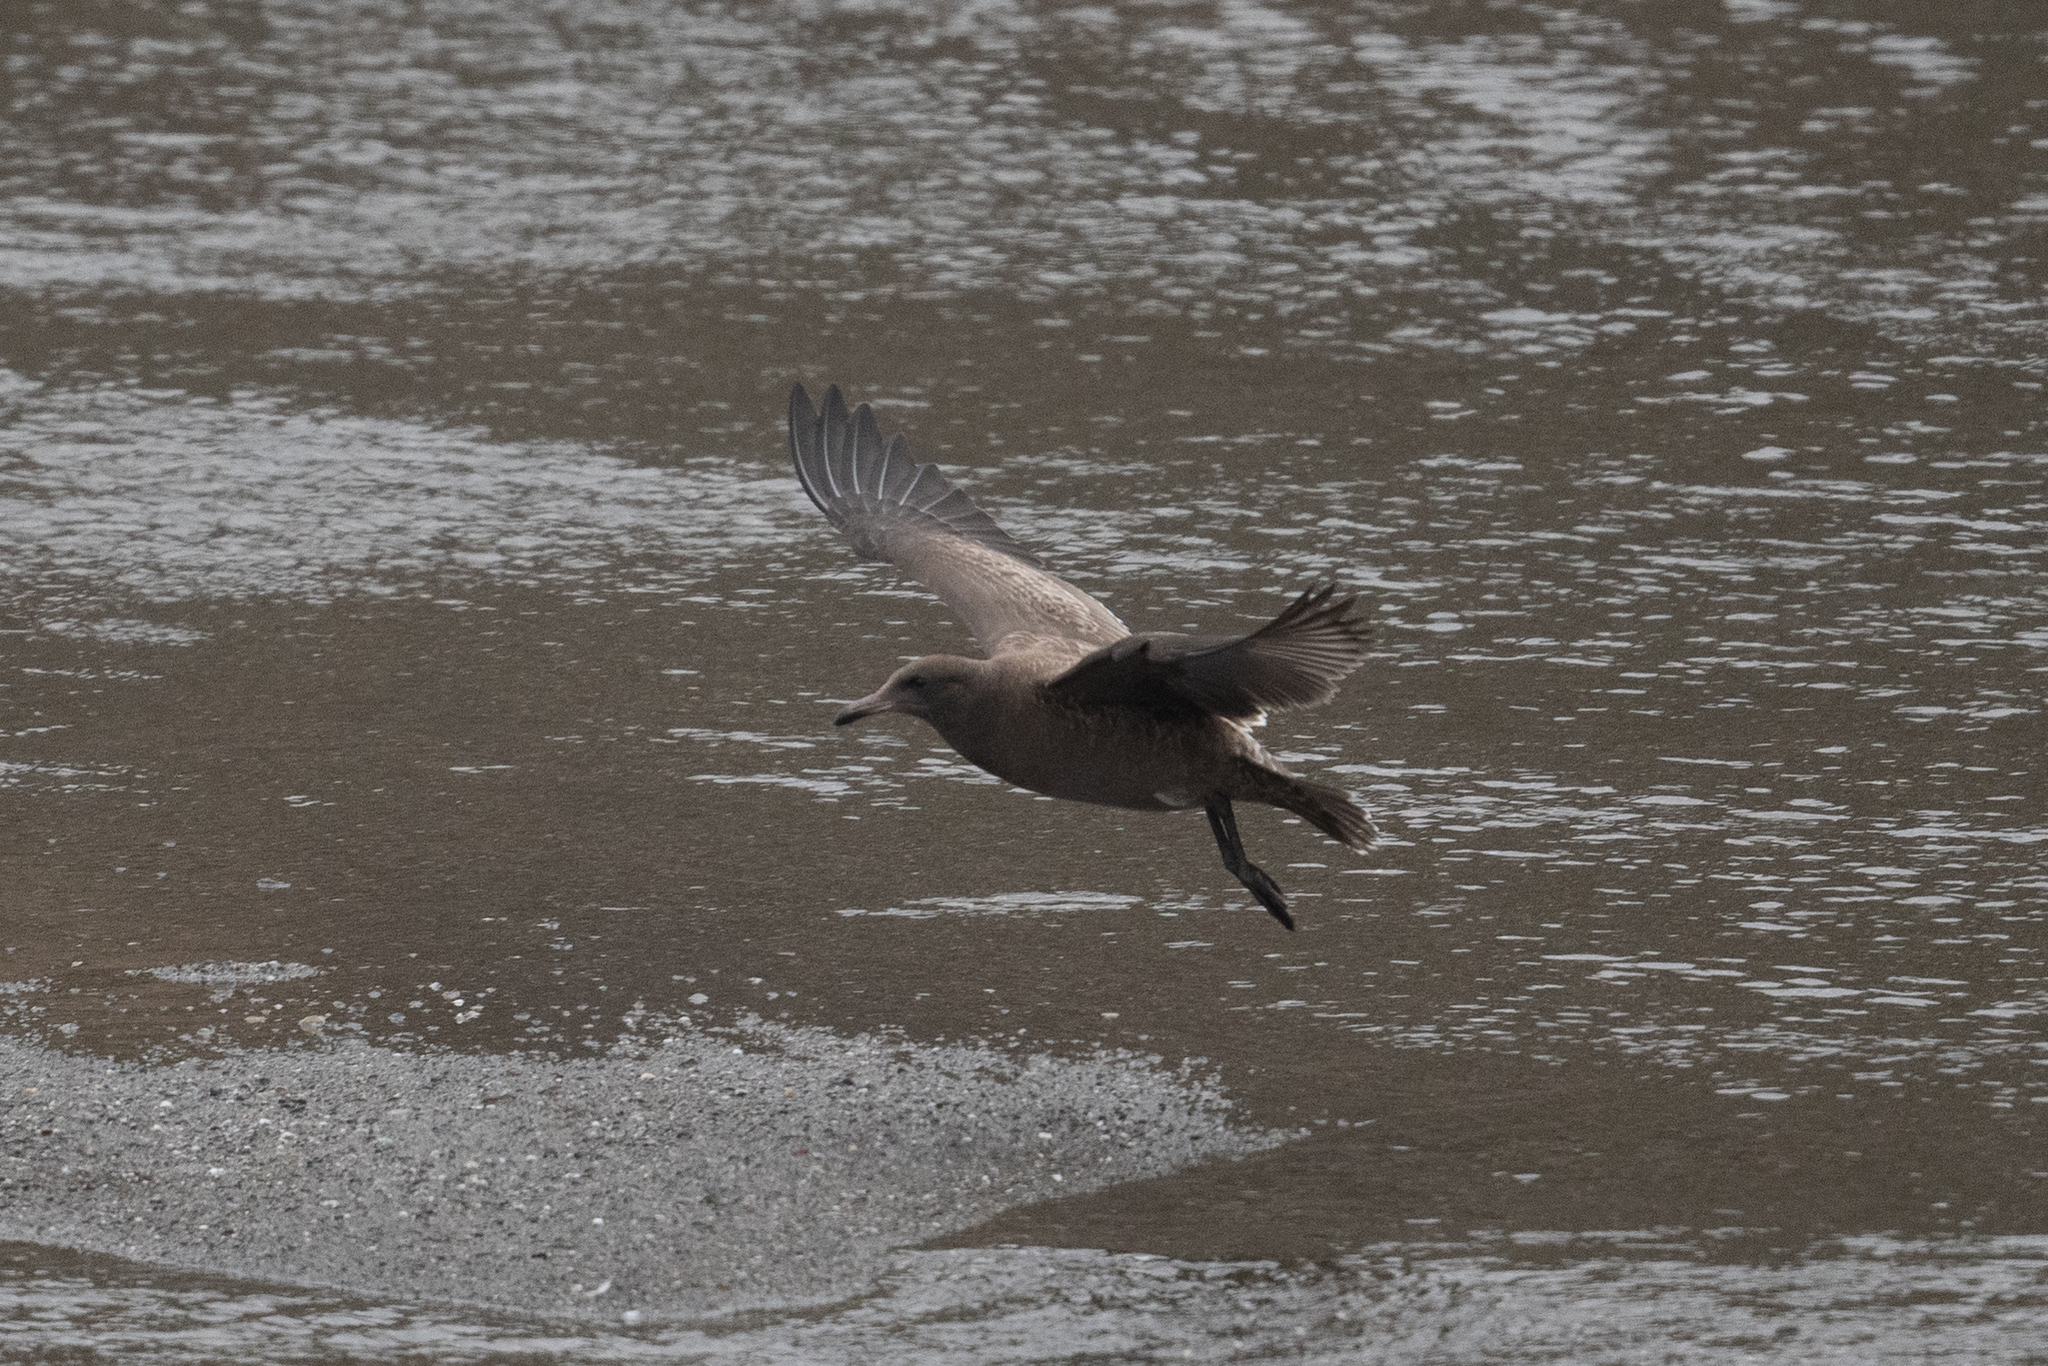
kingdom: Animalia
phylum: Chordata
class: Aves
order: Charadriiformes
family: Laridae
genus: Larus
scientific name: Larus heermanni
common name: Heermann's gull
